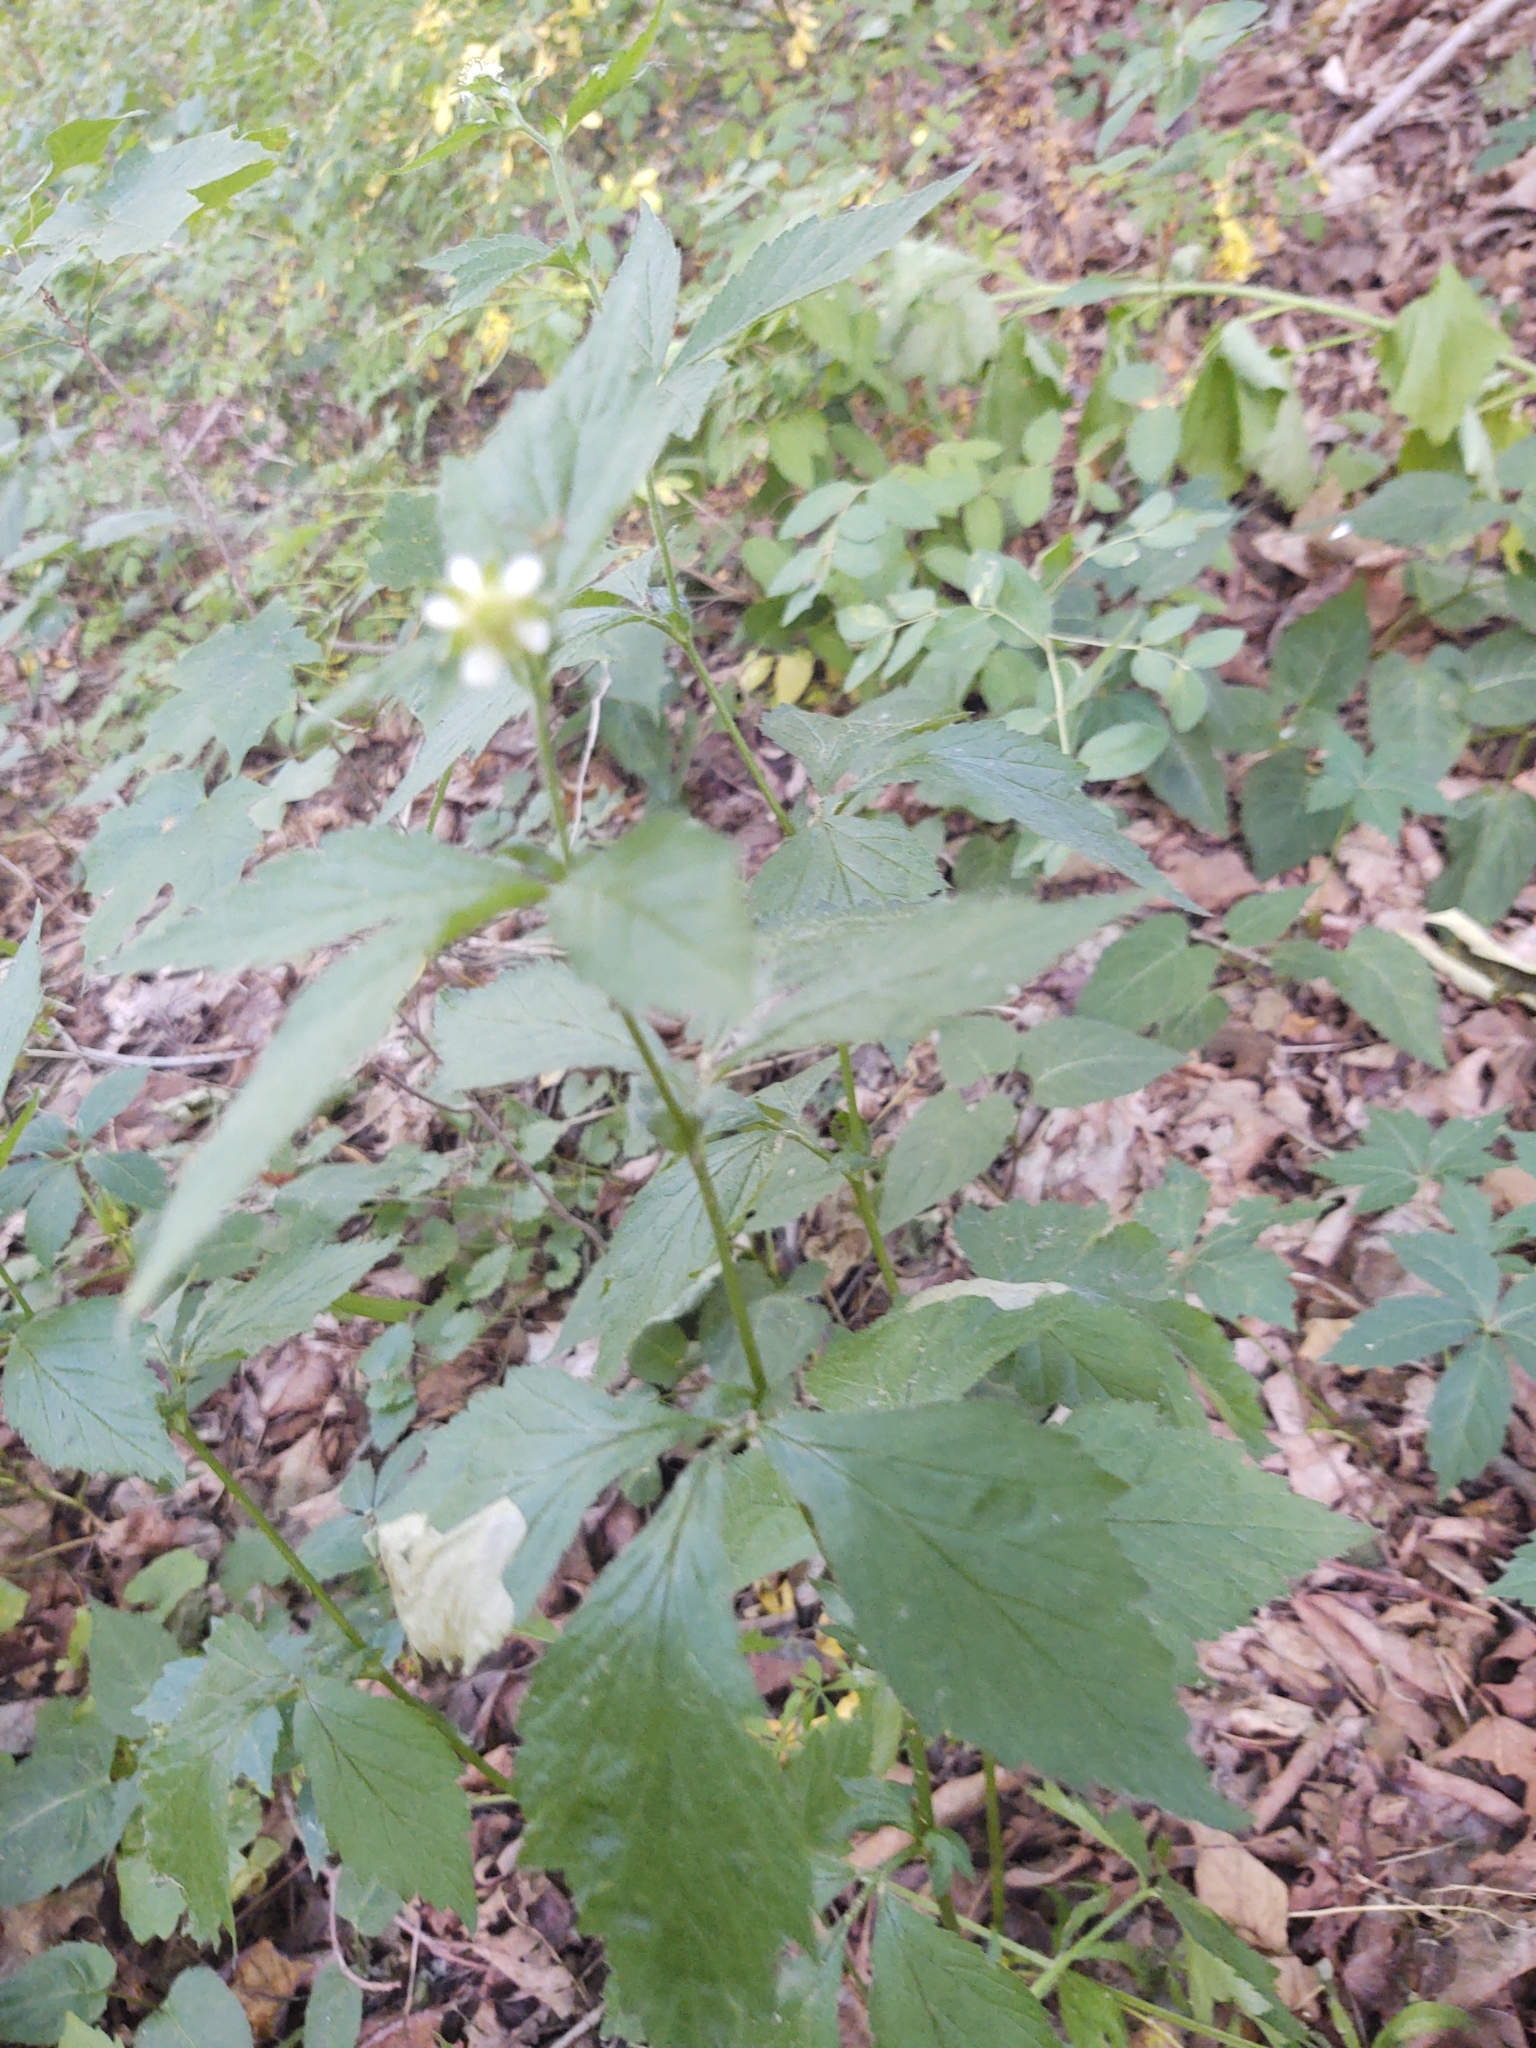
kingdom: Plantae
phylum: Tracheophyta
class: Magnoliopsida
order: Rosales
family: Rosaceae
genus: Geum
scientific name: Geum canadense
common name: White avens
